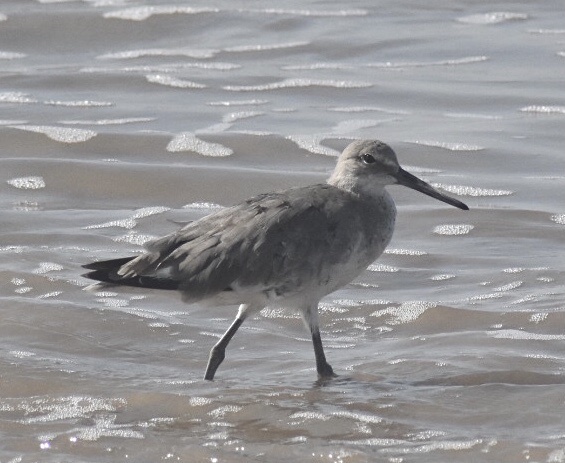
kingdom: Animalia
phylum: Chordata
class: Aves
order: Charadriiformes
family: Scolopacidae
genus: Tringa
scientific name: Tringa semipalmata
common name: Willet
